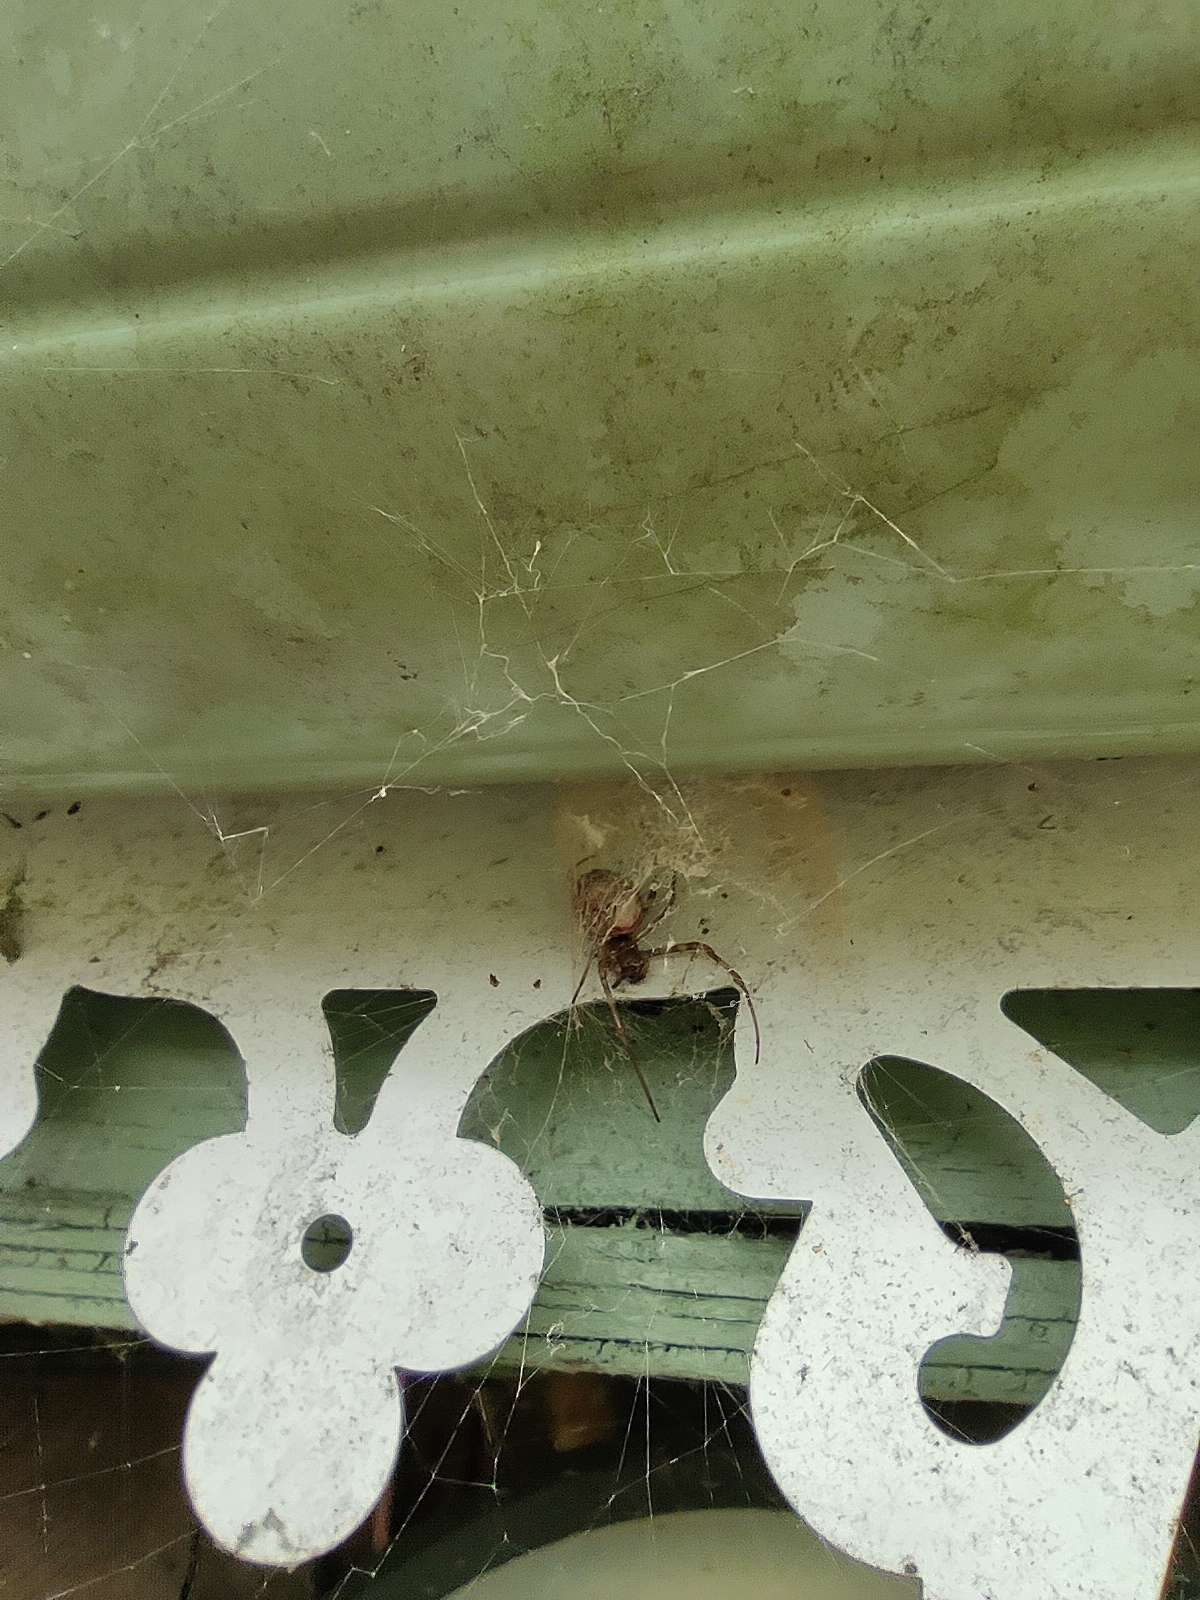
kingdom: Animalia
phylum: Arthropoda
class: Arachnida
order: Araneae
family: Araneidae
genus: Nephilingis
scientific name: Nephilingis borbonica
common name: Reunion hermit spider
